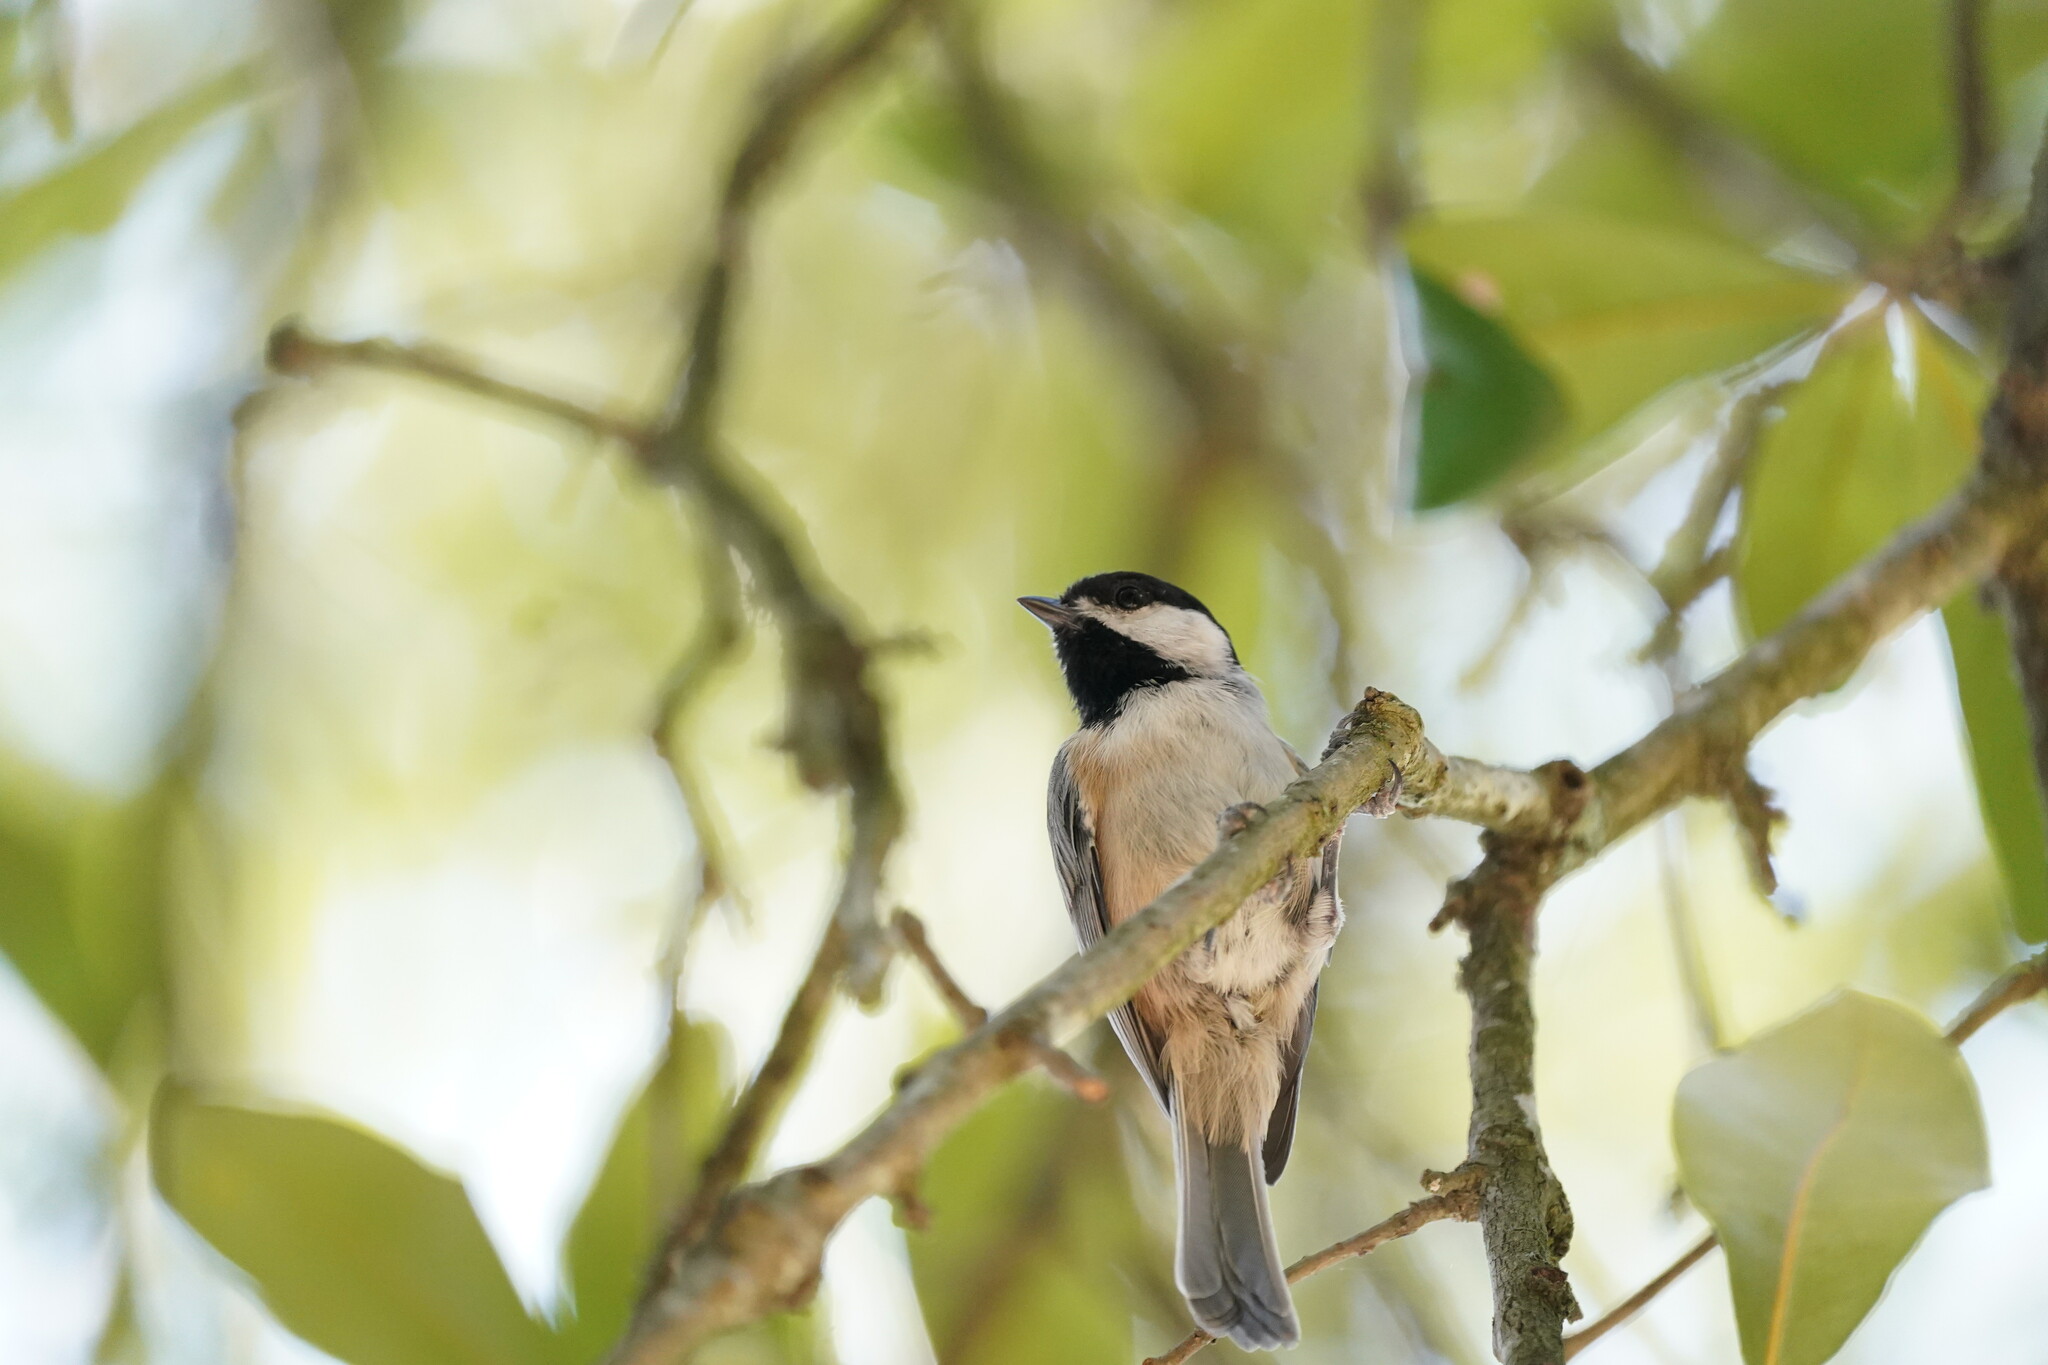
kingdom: Animalia
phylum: Chordata
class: Aves
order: Passeriformes
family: Paridae
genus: Poecile
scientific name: Poecile carolinensis
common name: Carolina chickadee
